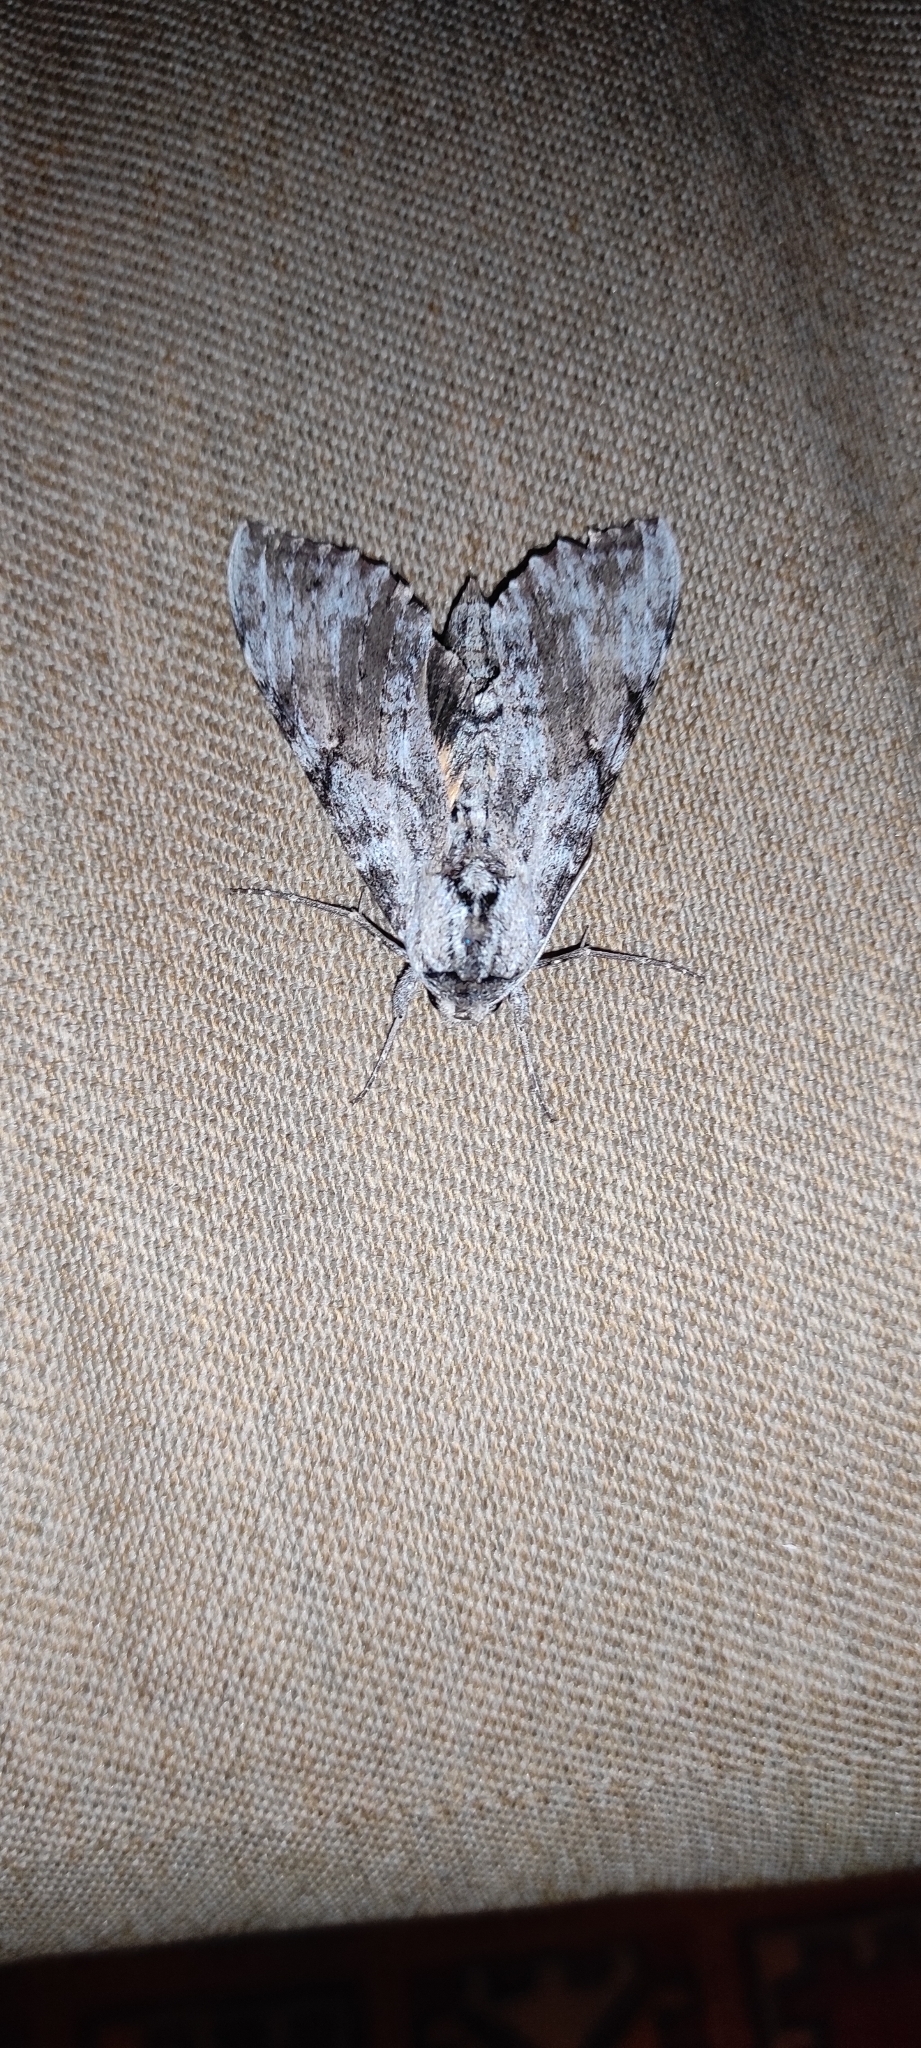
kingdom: Animalia
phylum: Arthropoda
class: Insecta
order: Lepidoptera
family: Sphingidae
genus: Pseudosphinx
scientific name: Pseudosphinx tetrio
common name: Tetrio sphinx
